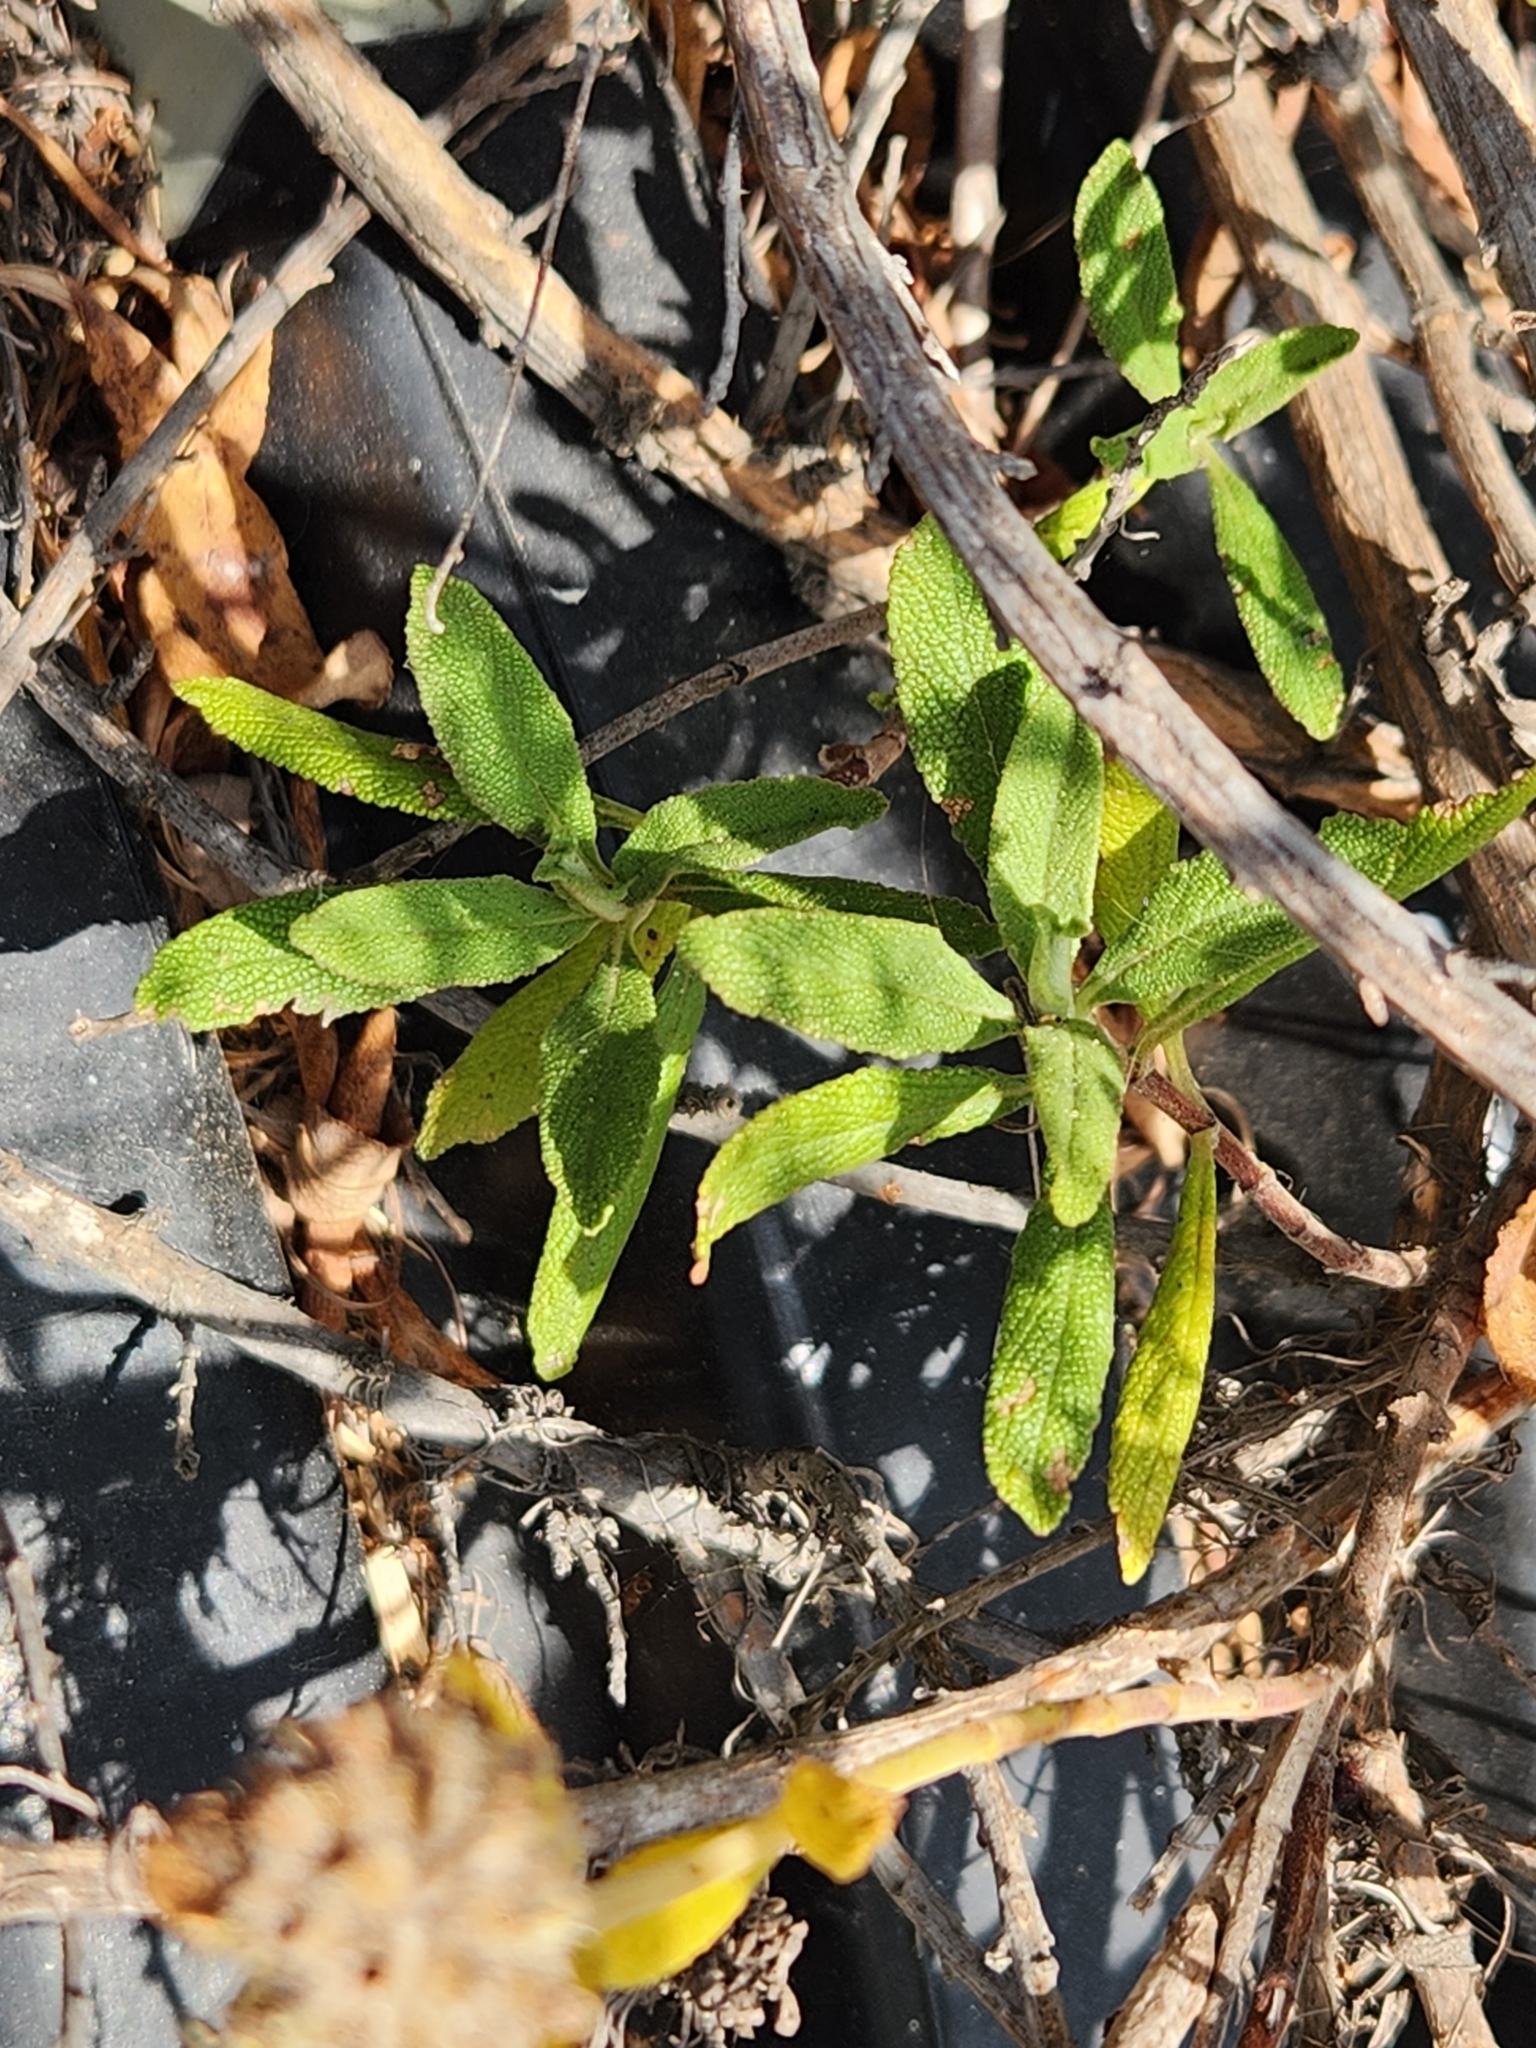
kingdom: Plantae
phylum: Tracheophyta
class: Magnoliopsida
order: Lamiales
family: Lamiaceae
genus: Salvia
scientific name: Salvia mellifera
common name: Black sage
